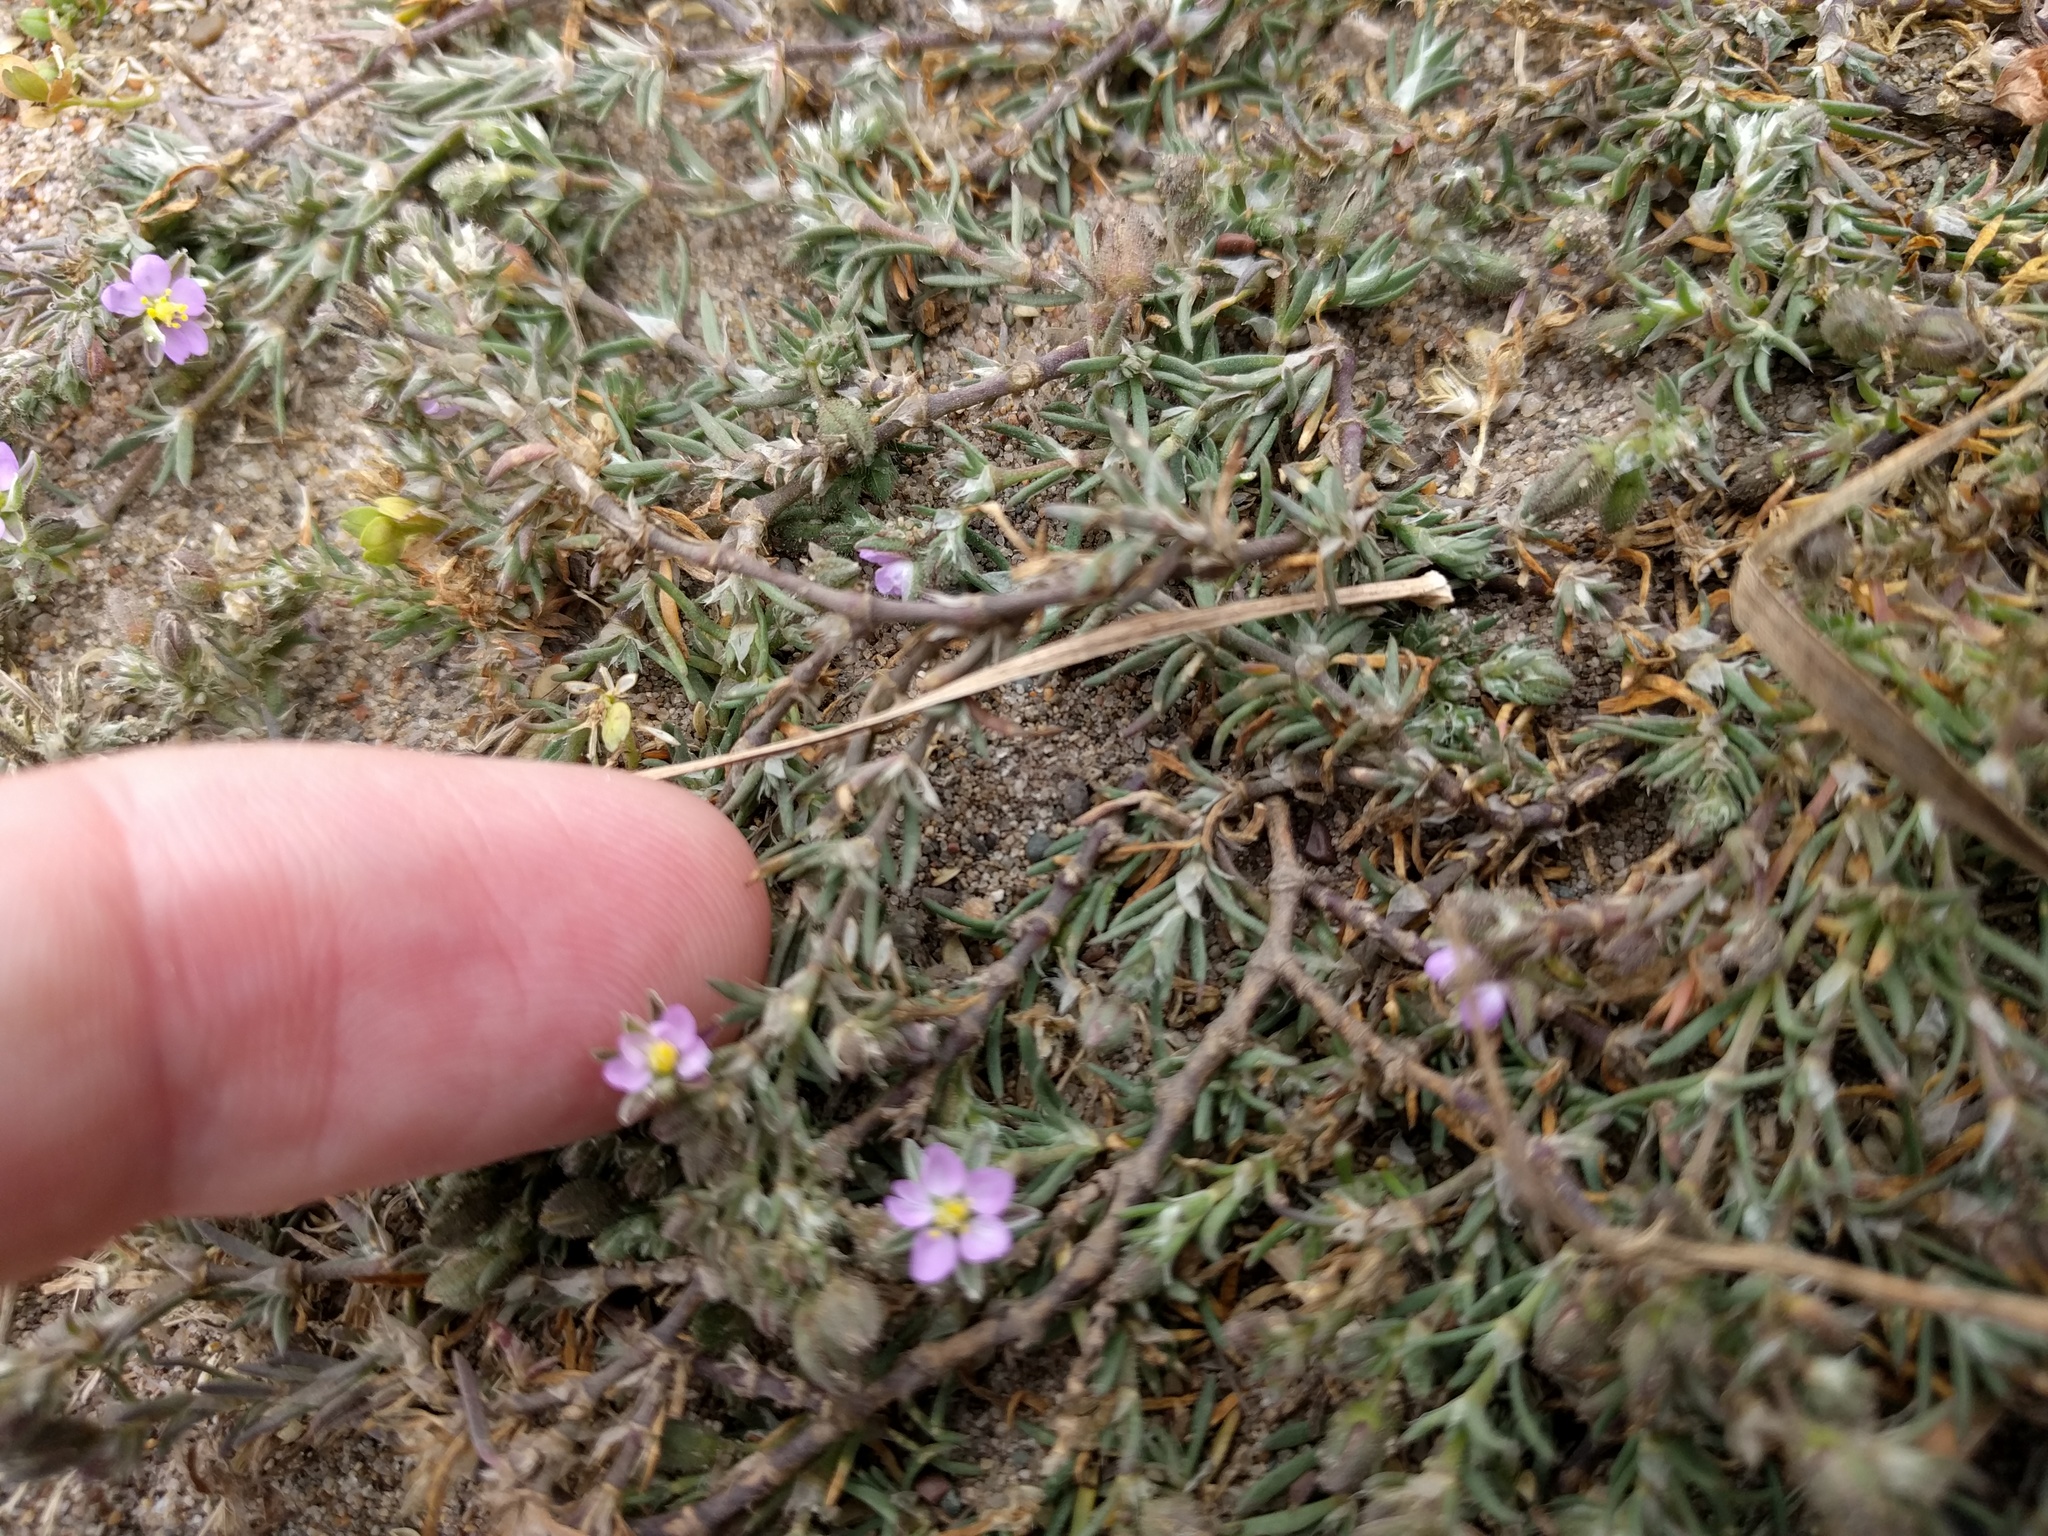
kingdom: Plantae
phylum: Tracheophyta
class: Magnoliopsida
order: Caryophyllales
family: Caryophyllaceae
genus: Spergularia
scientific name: Spergularia rubra
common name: Red sand-spurrey
